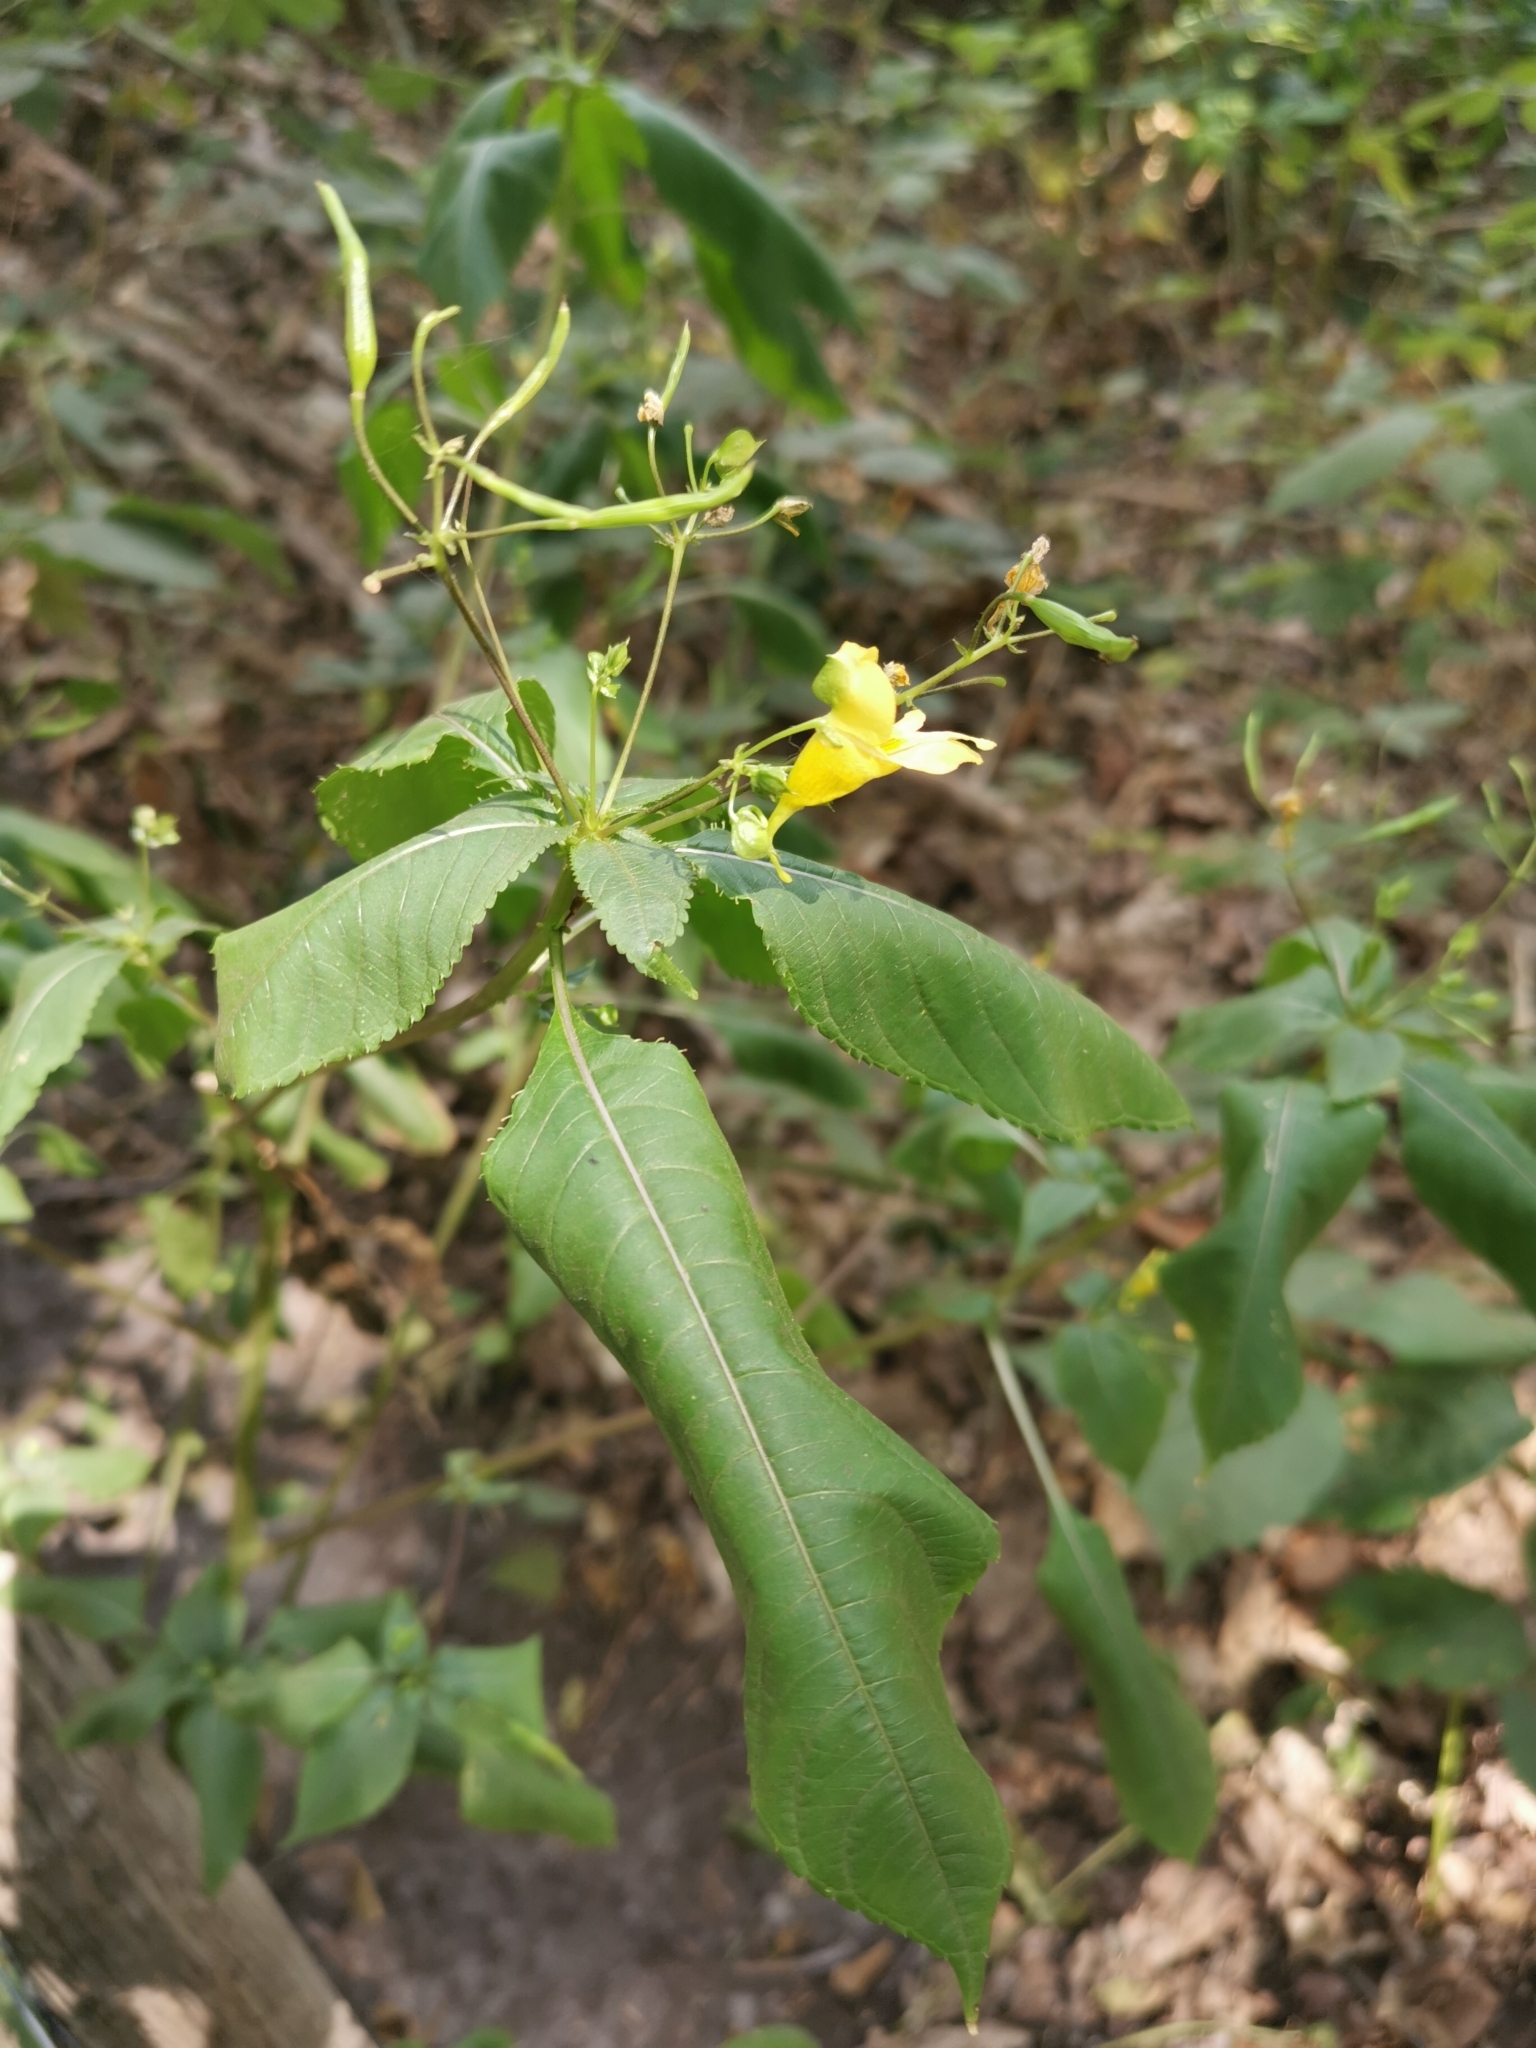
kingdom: Plantae
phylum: Tracheophyta
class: Magnoliopsida
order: Ericales
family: Balsaminaceae
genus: Impatiens
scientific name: Impatiens edgeworthii
